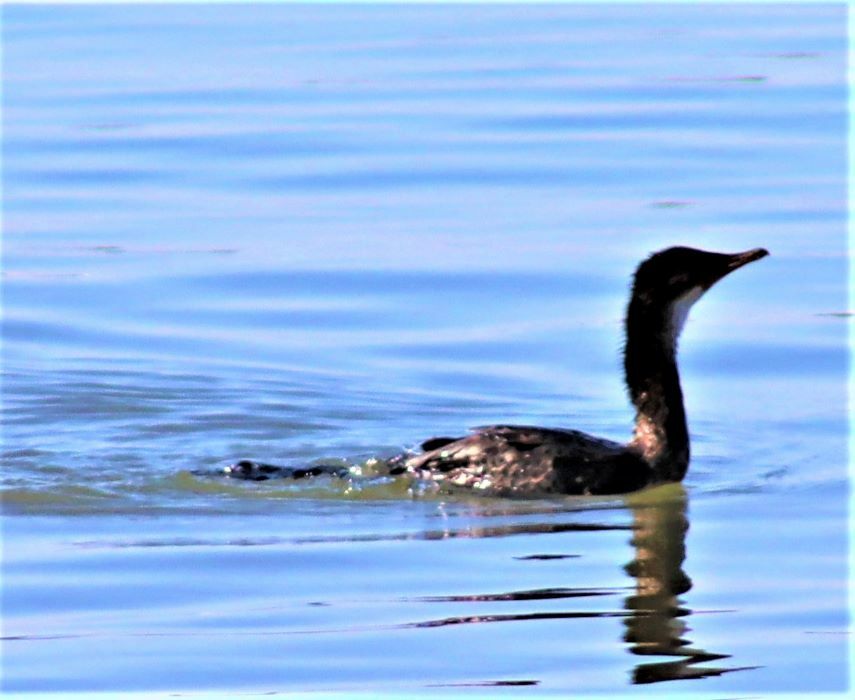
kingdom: Animalia
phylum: Chordata
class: Aves
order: Suliformes
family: Phalacrocoracidae
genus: Microcarbo
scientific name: Microcarbo africanus
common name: Long-tailed cormorant
